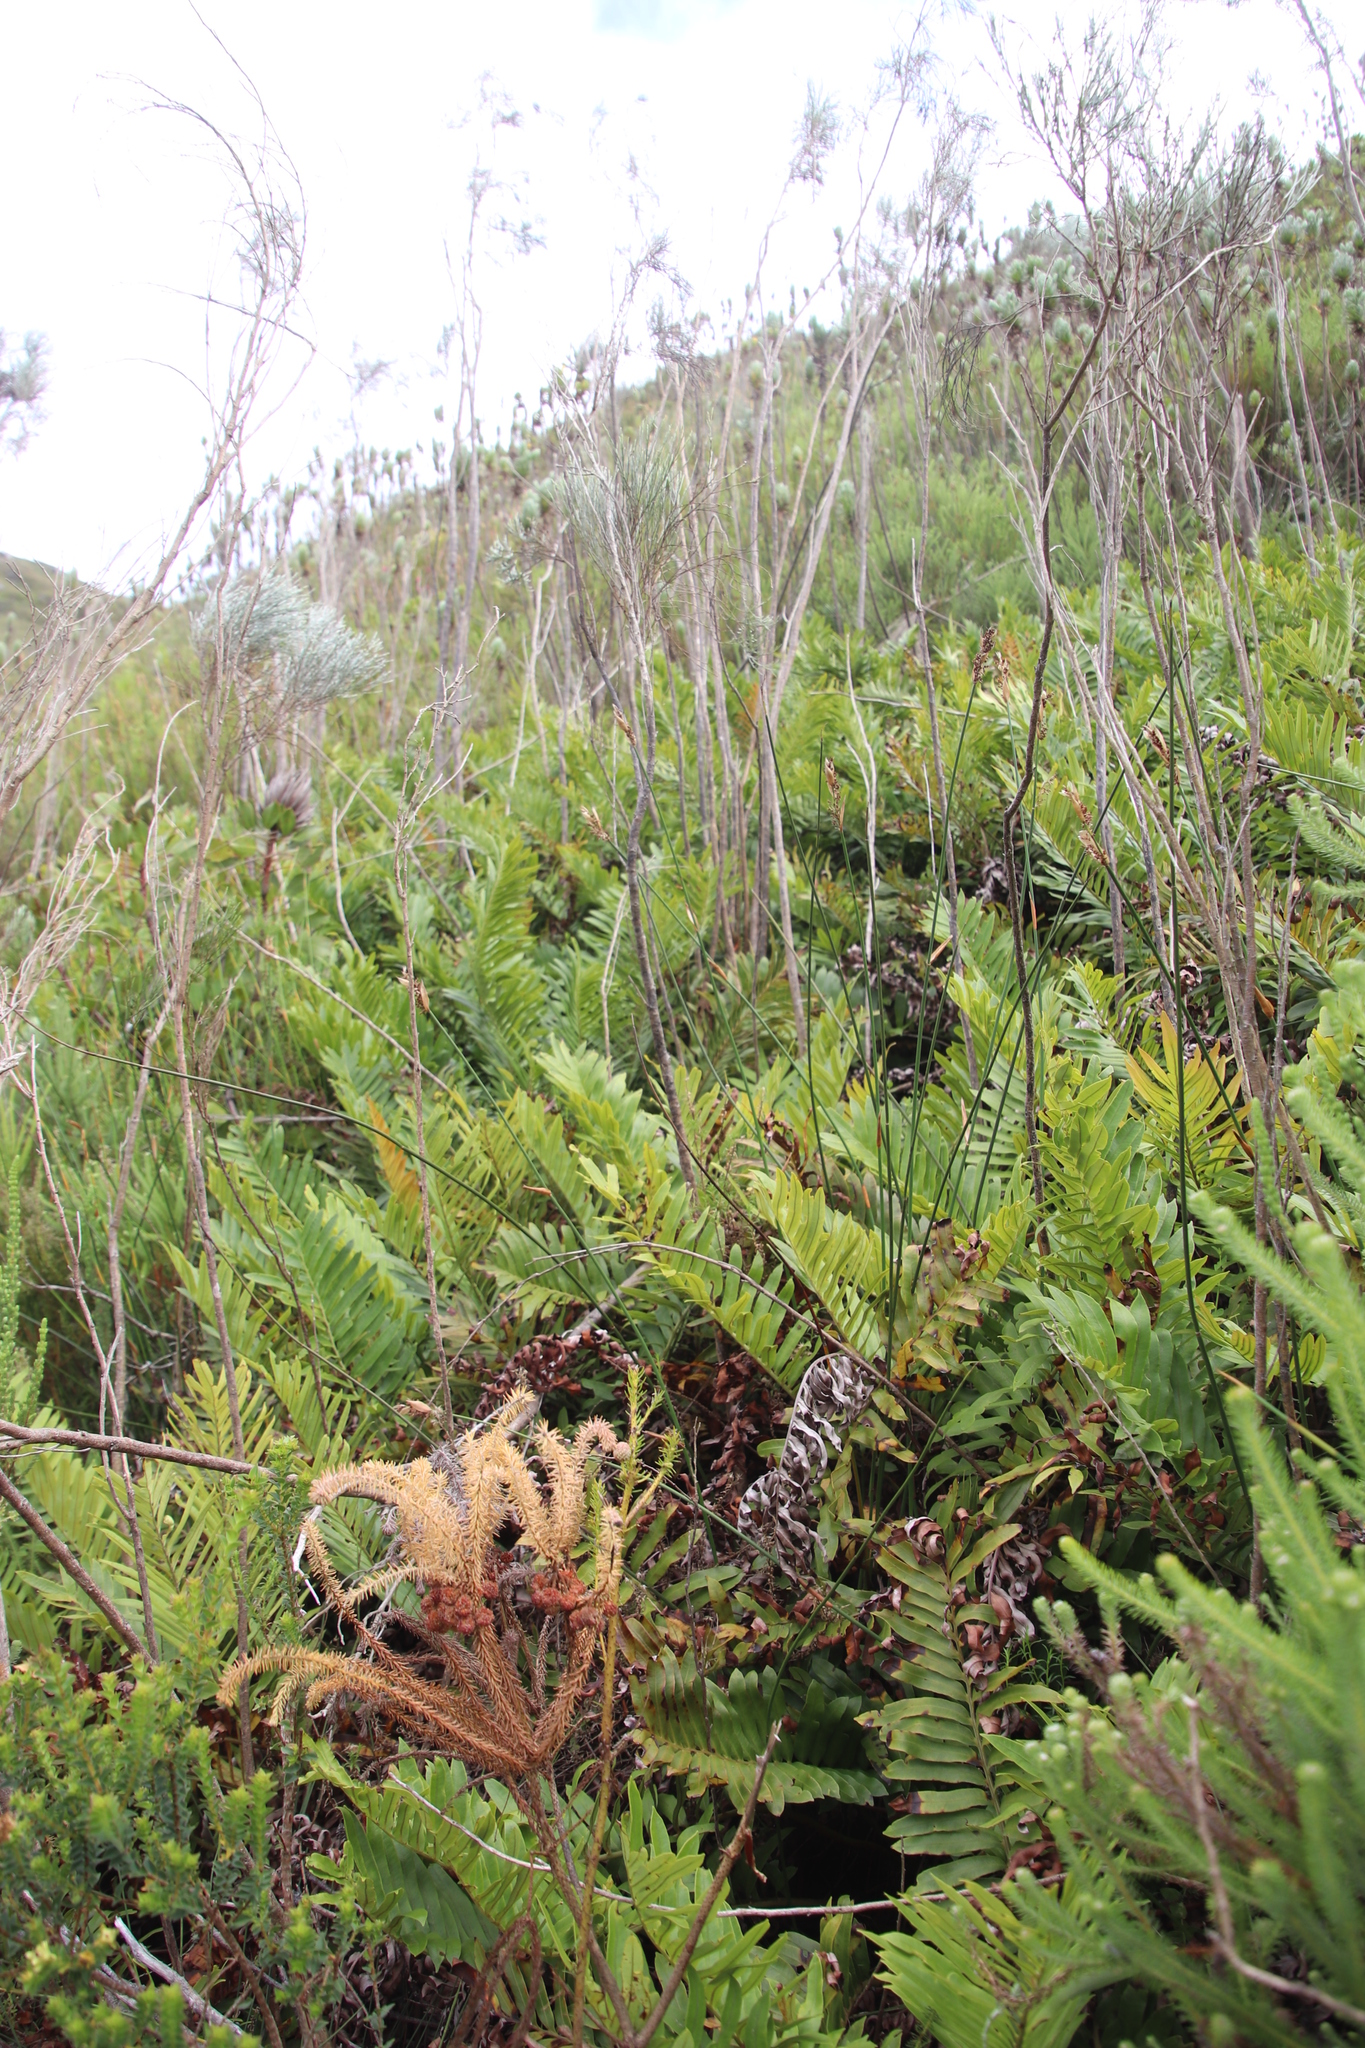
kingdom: Plantae
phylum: Tracheophyta
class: Polypodiopsida
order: Polypodiales
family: Blechnaceae
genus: Lomariocycas
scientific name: Lomariocycas tabularis
